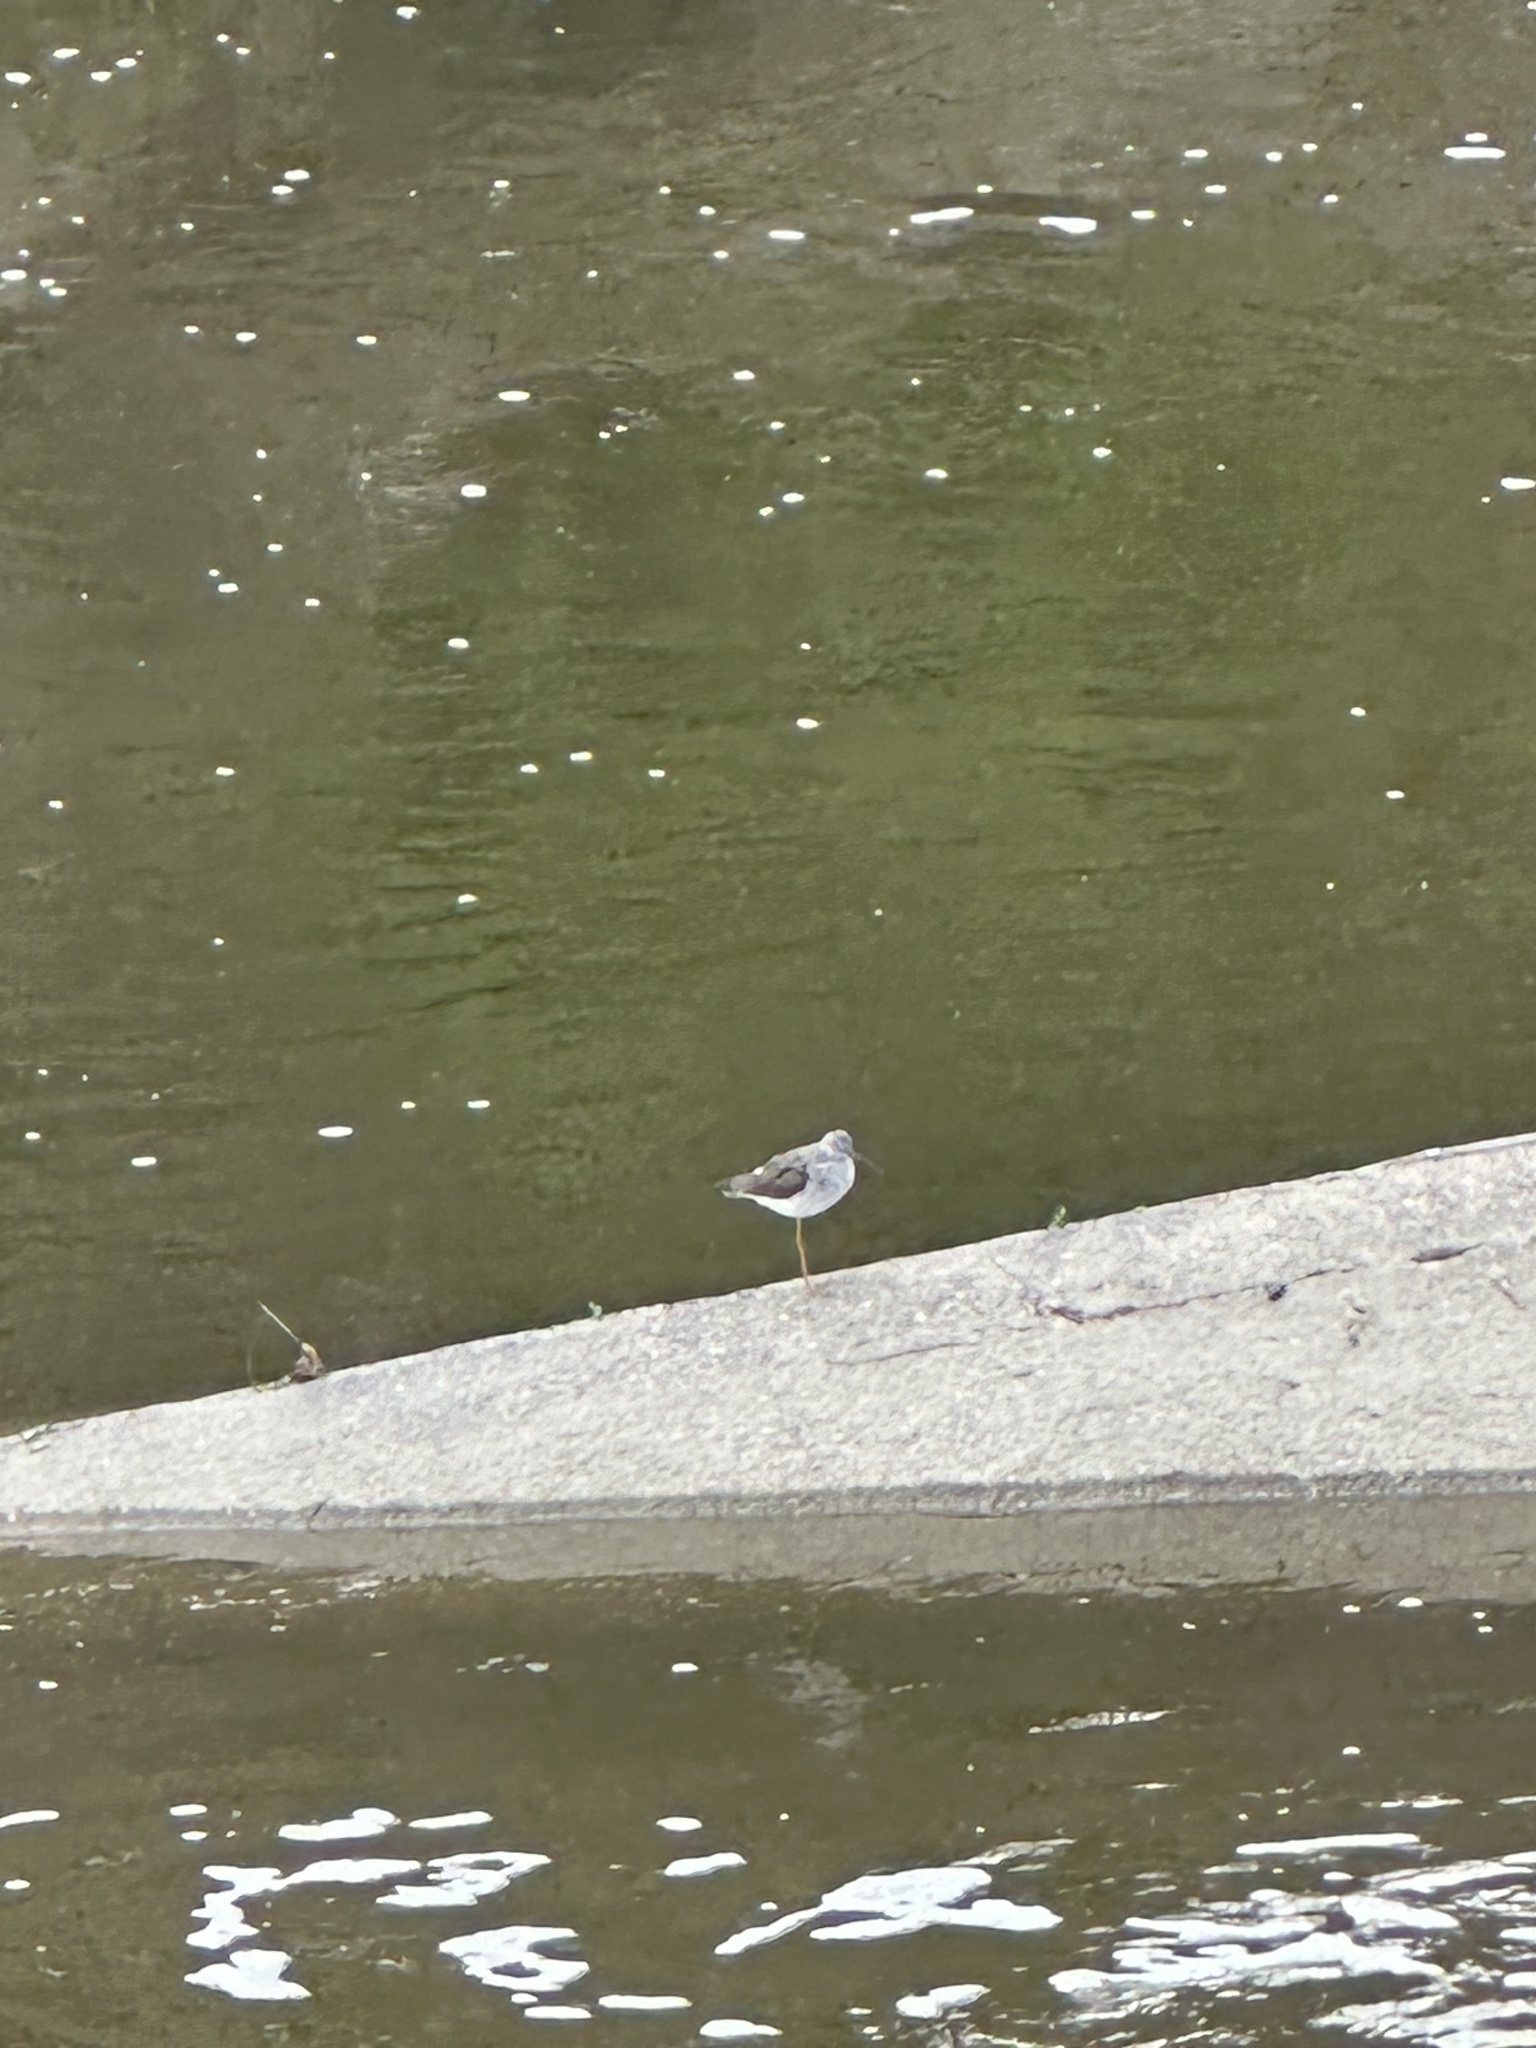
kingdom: Animalia
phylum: Chordata
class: Aves
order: Charadriiformes
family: Scolopacidae
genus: Tringa
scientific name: Tringa melanoleuca
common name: Greater yellowlegs
